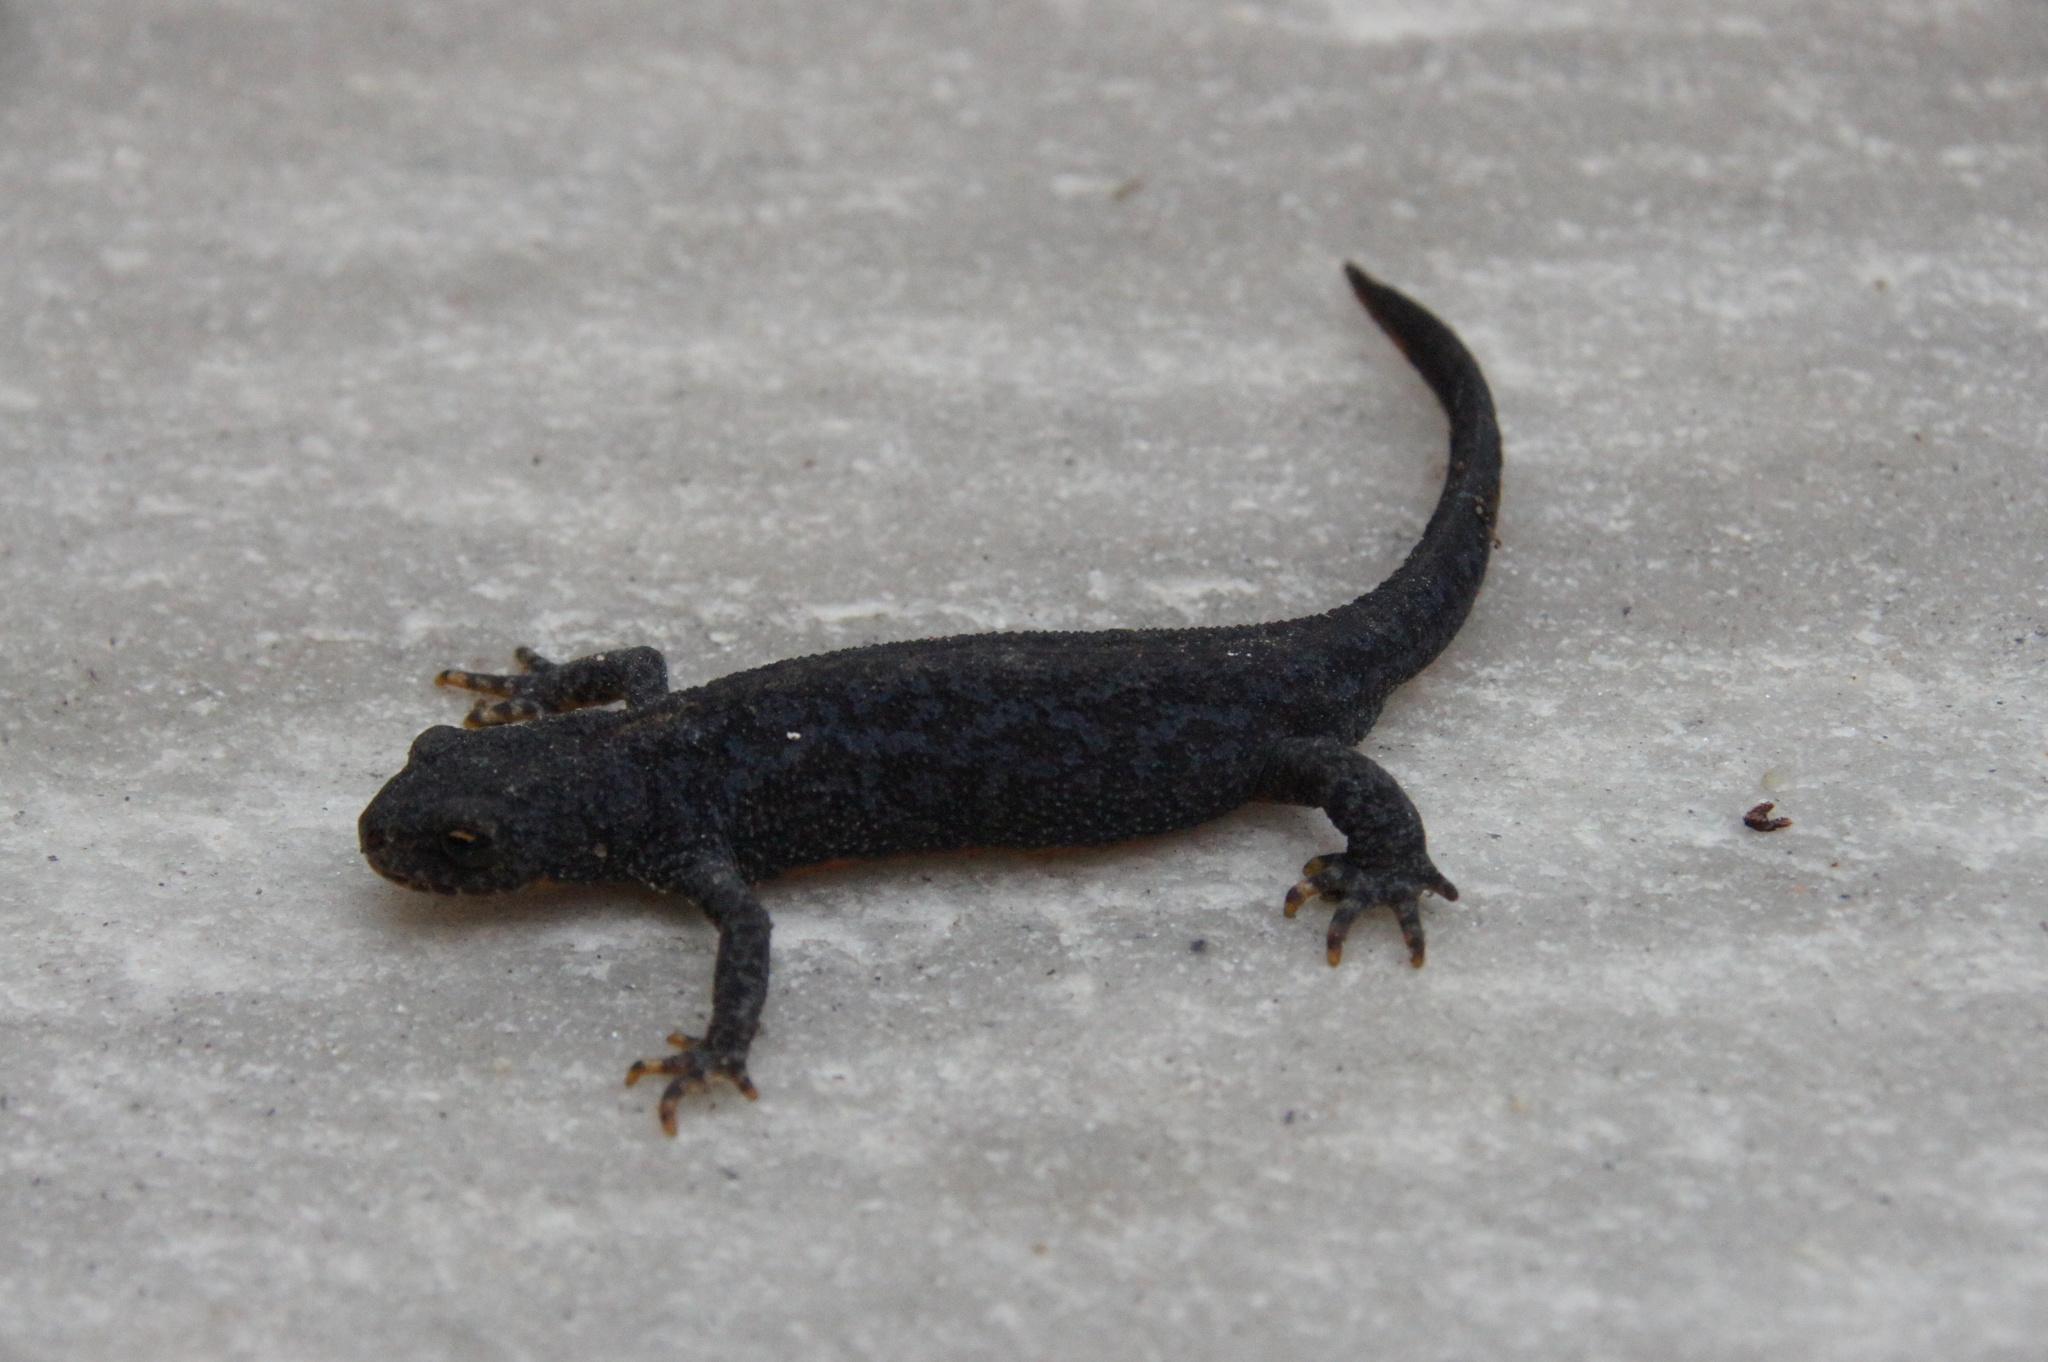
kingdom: Animalia
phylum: Chordata
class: Amphibia
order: Caudata
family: Salamandridae
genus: Ichthyosaura
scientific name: Ichthyosaura alpestris
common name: Alpine newt
